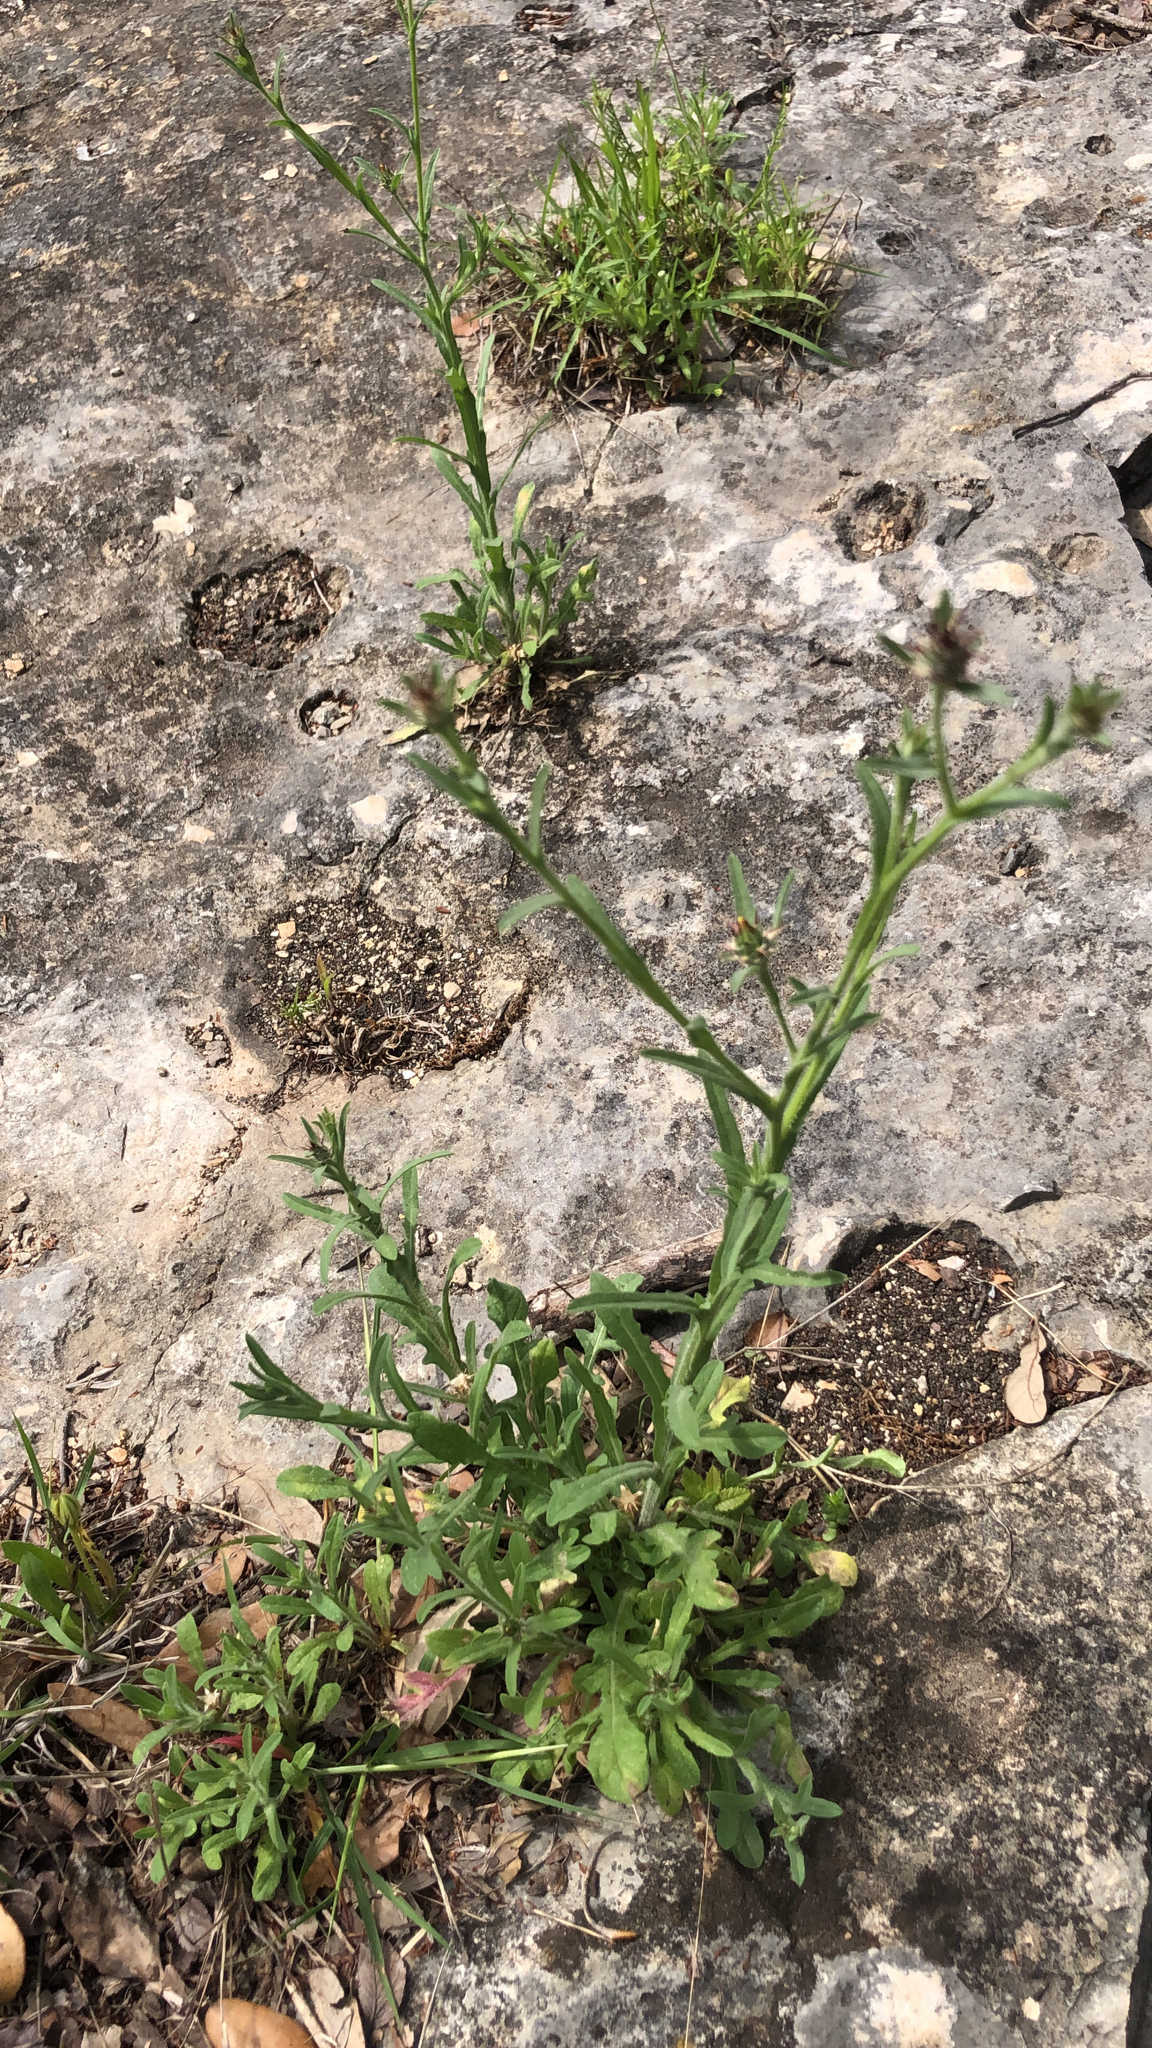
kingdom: Plantae
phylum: Tracheophyta
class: Magnoliopsida
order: Asterales
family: Asteraceae
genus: Centaurea
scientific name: Centaurea melitensis
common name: Maltese star-thistle
